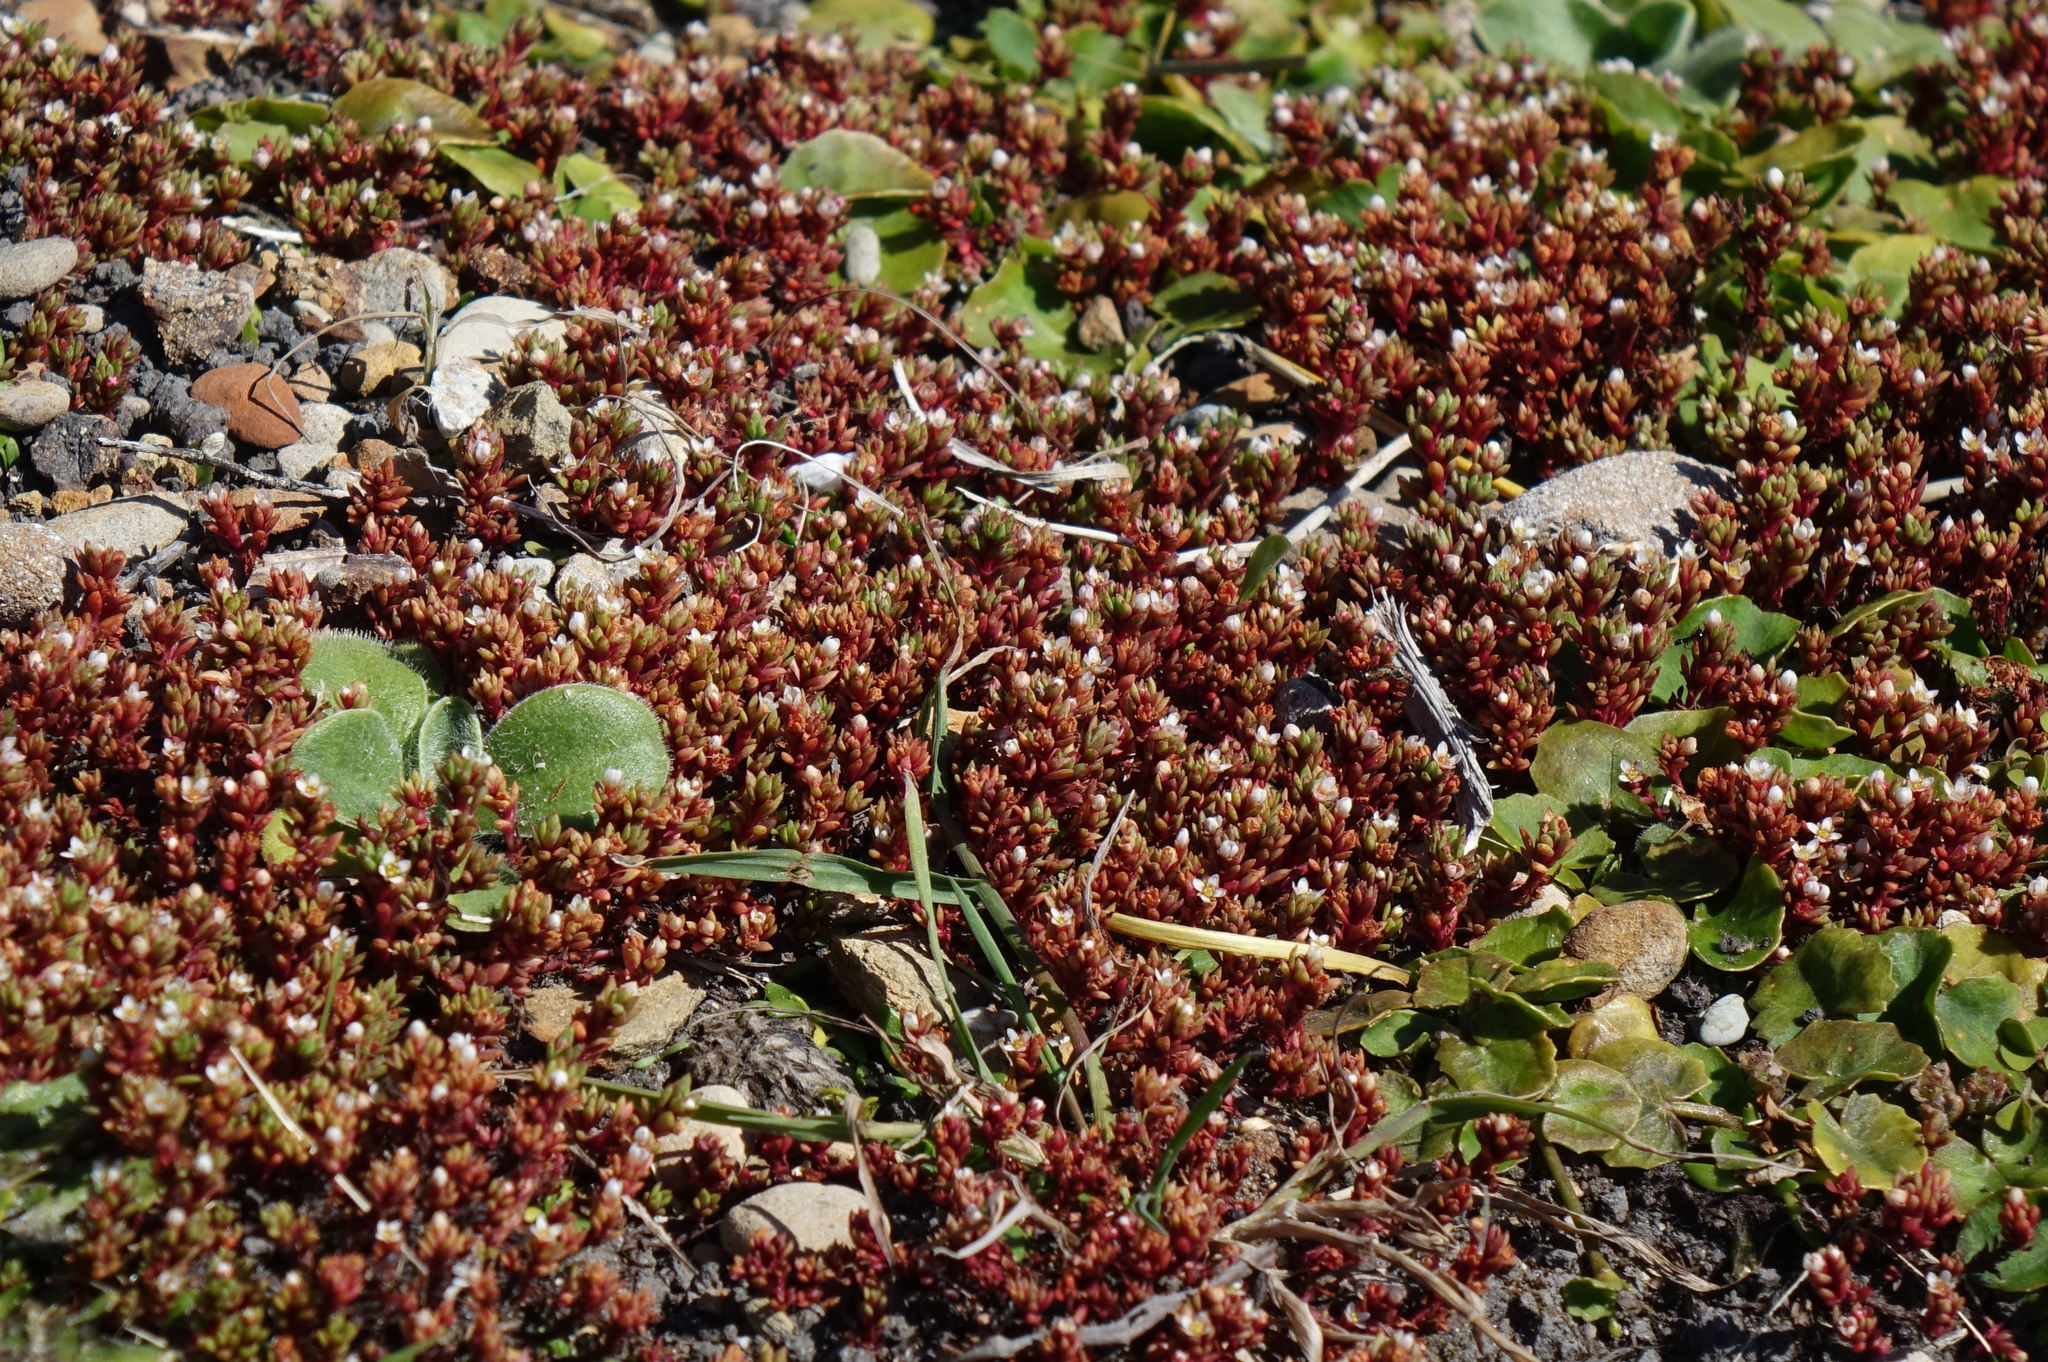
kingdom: Plantae
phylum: Tracheophyta
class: Magnoliopsida
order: Saxifragales
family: Crassulaceae
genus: Crassula
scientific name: Crassula moschata
